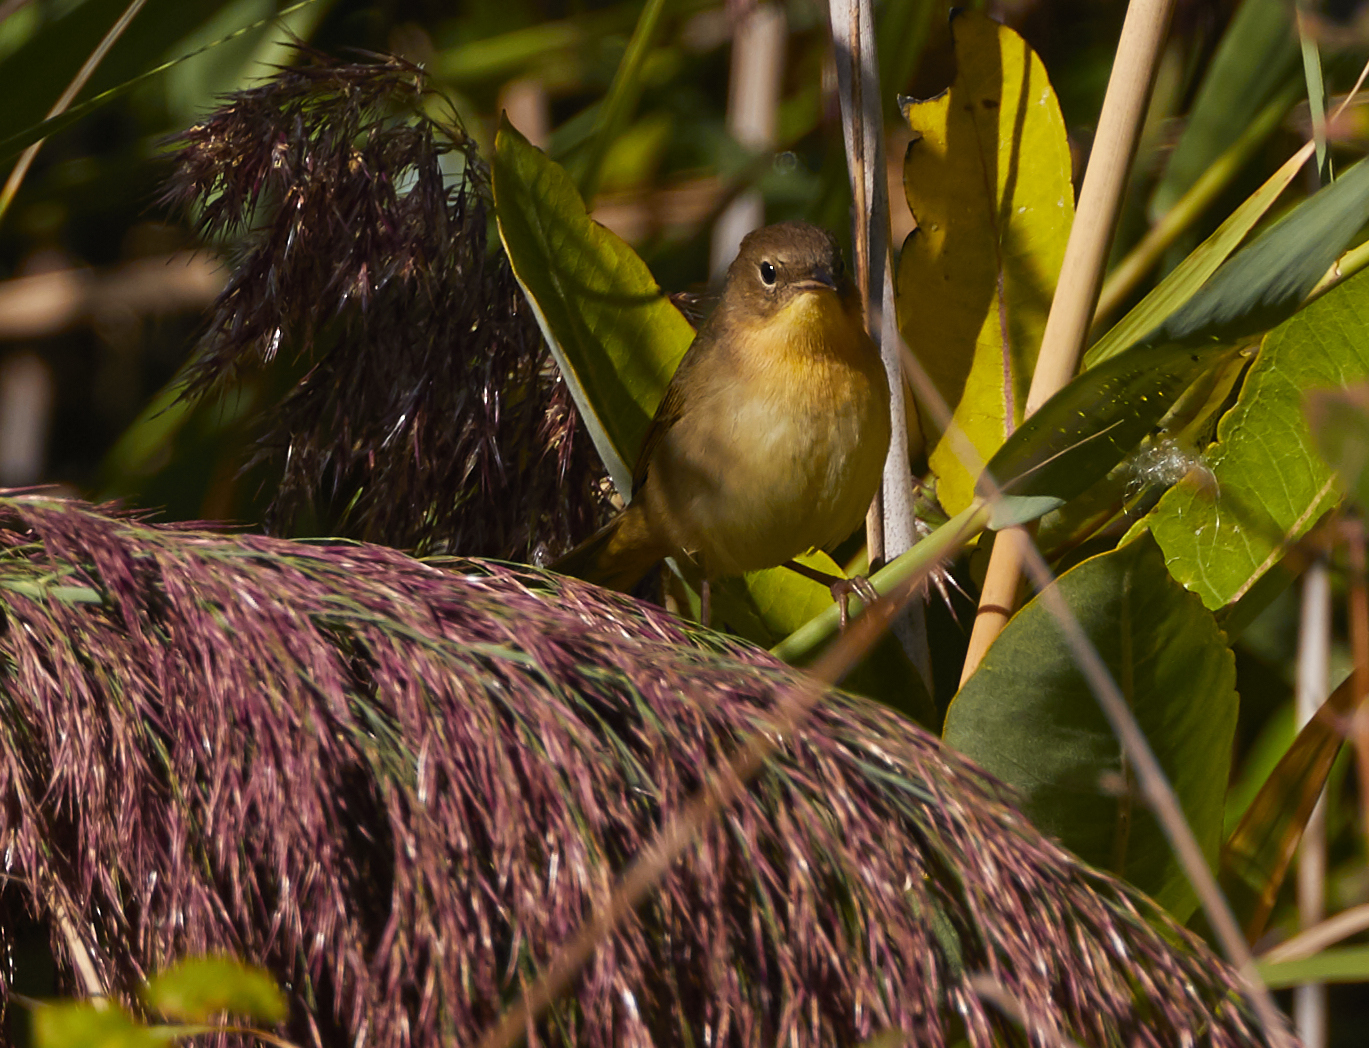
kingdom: Animalia
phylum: Chordata
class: Aves
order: Passeriformes
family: Parulidae
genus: Geothlypis
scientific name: Geothlypis trichas
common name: Common yellowthroat
